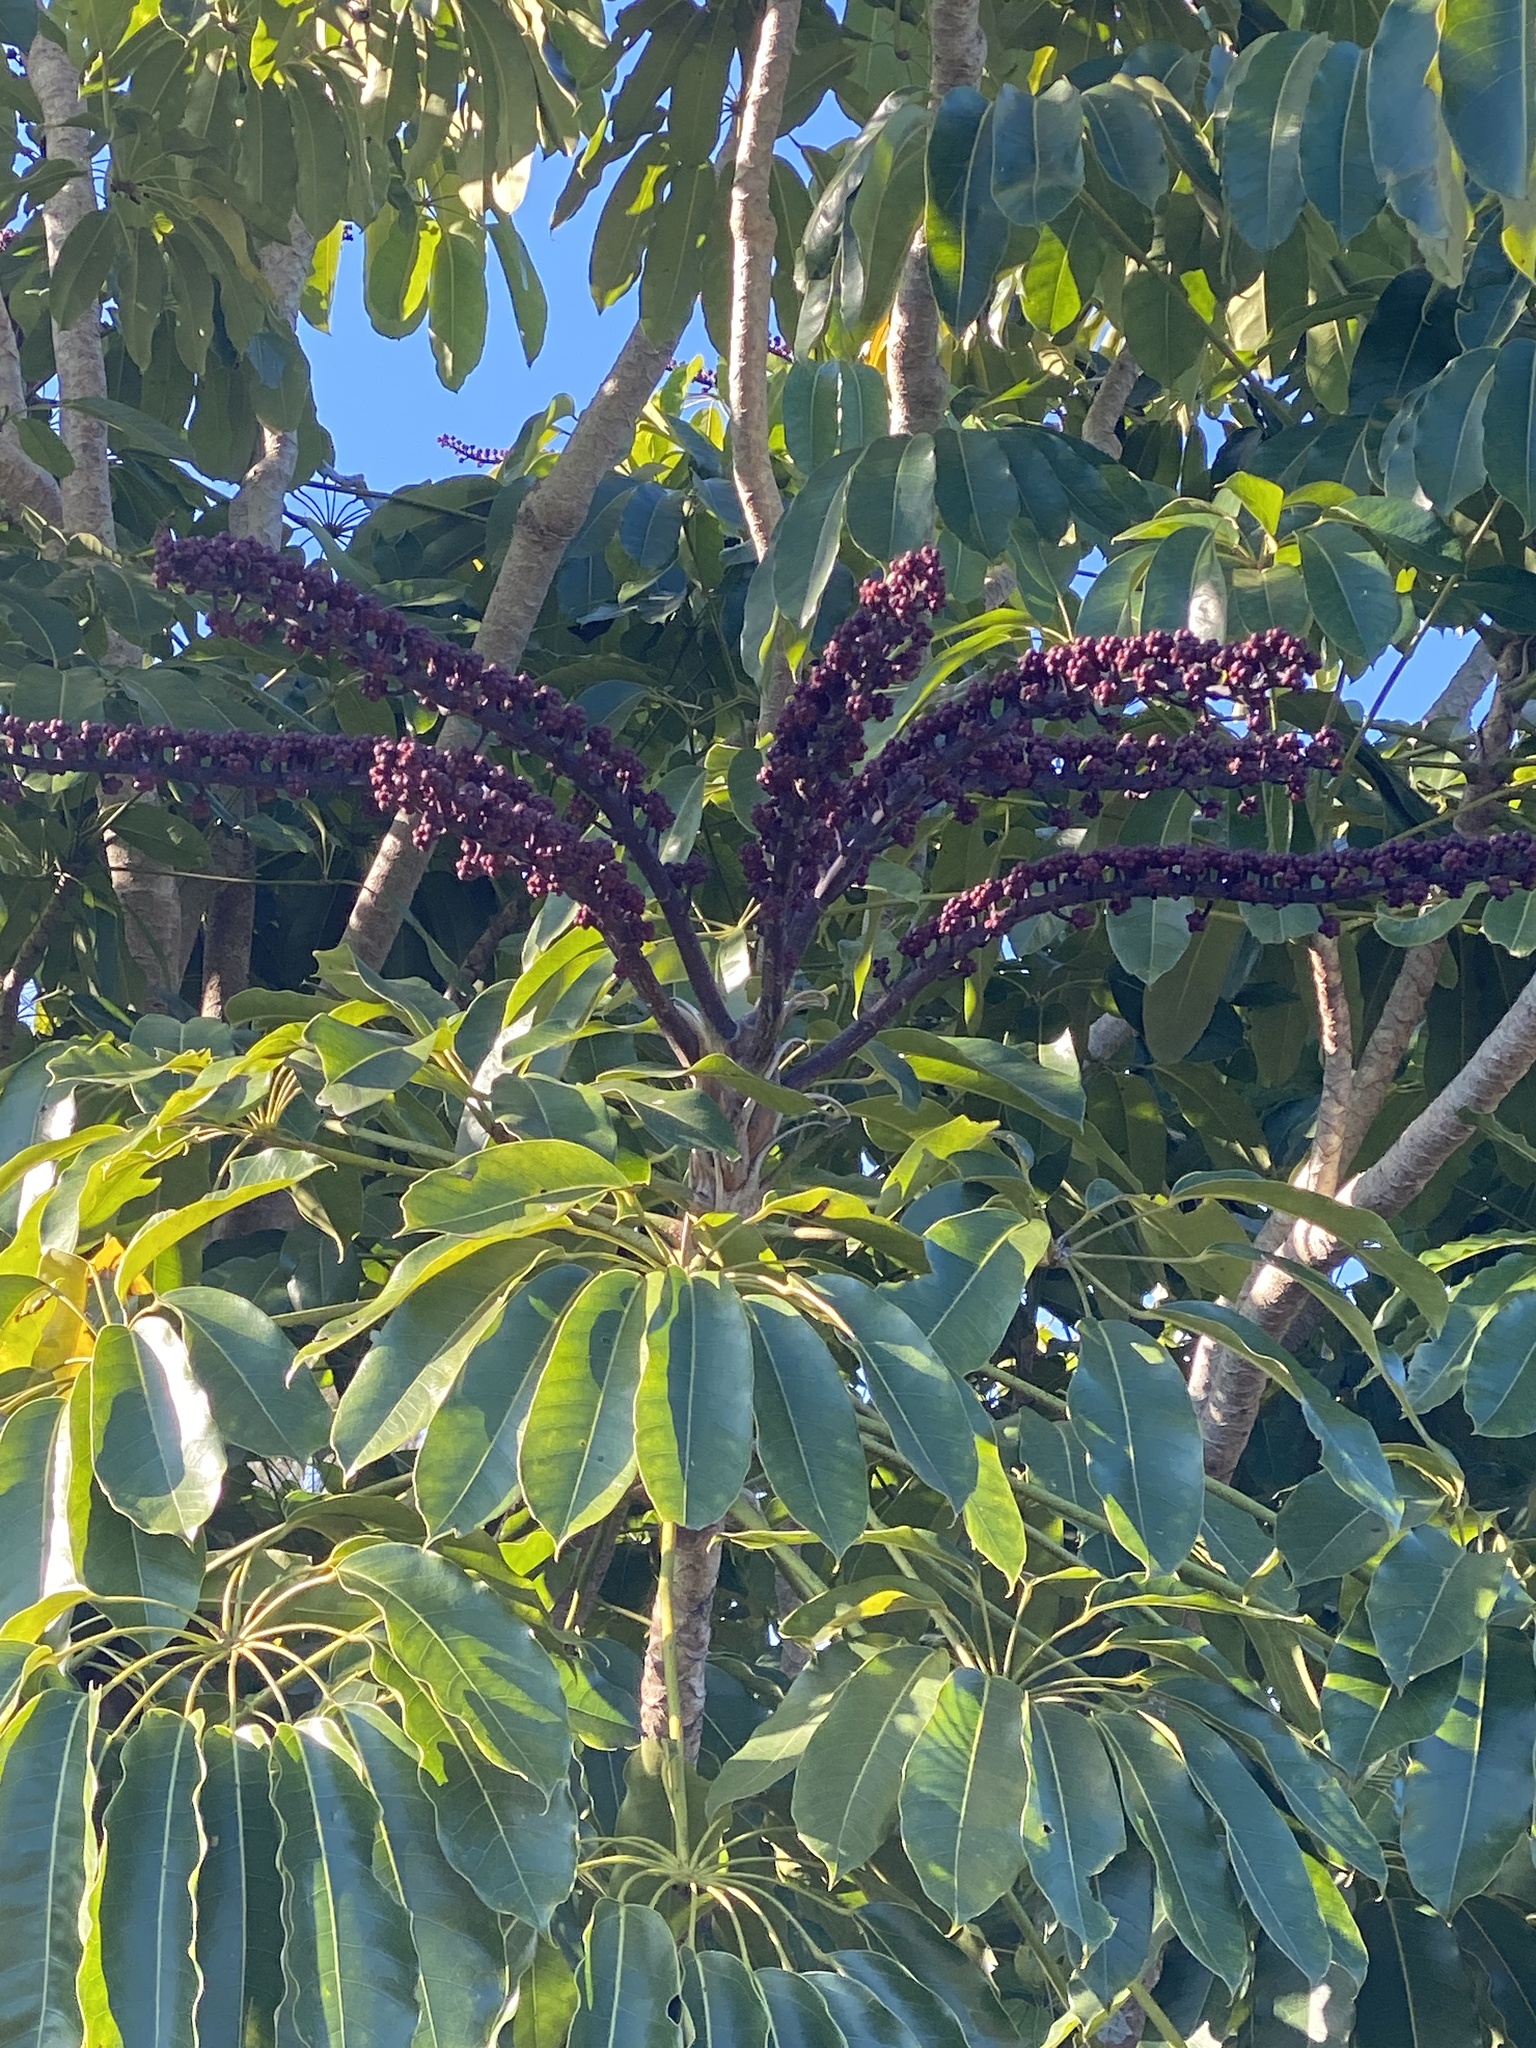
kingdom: Plantae
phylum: Tracheophyta
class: Magnoliopsida
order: Apiales
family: Araliaceae
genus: Heptapleurum
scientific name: Heptapleurum actinophyllum
